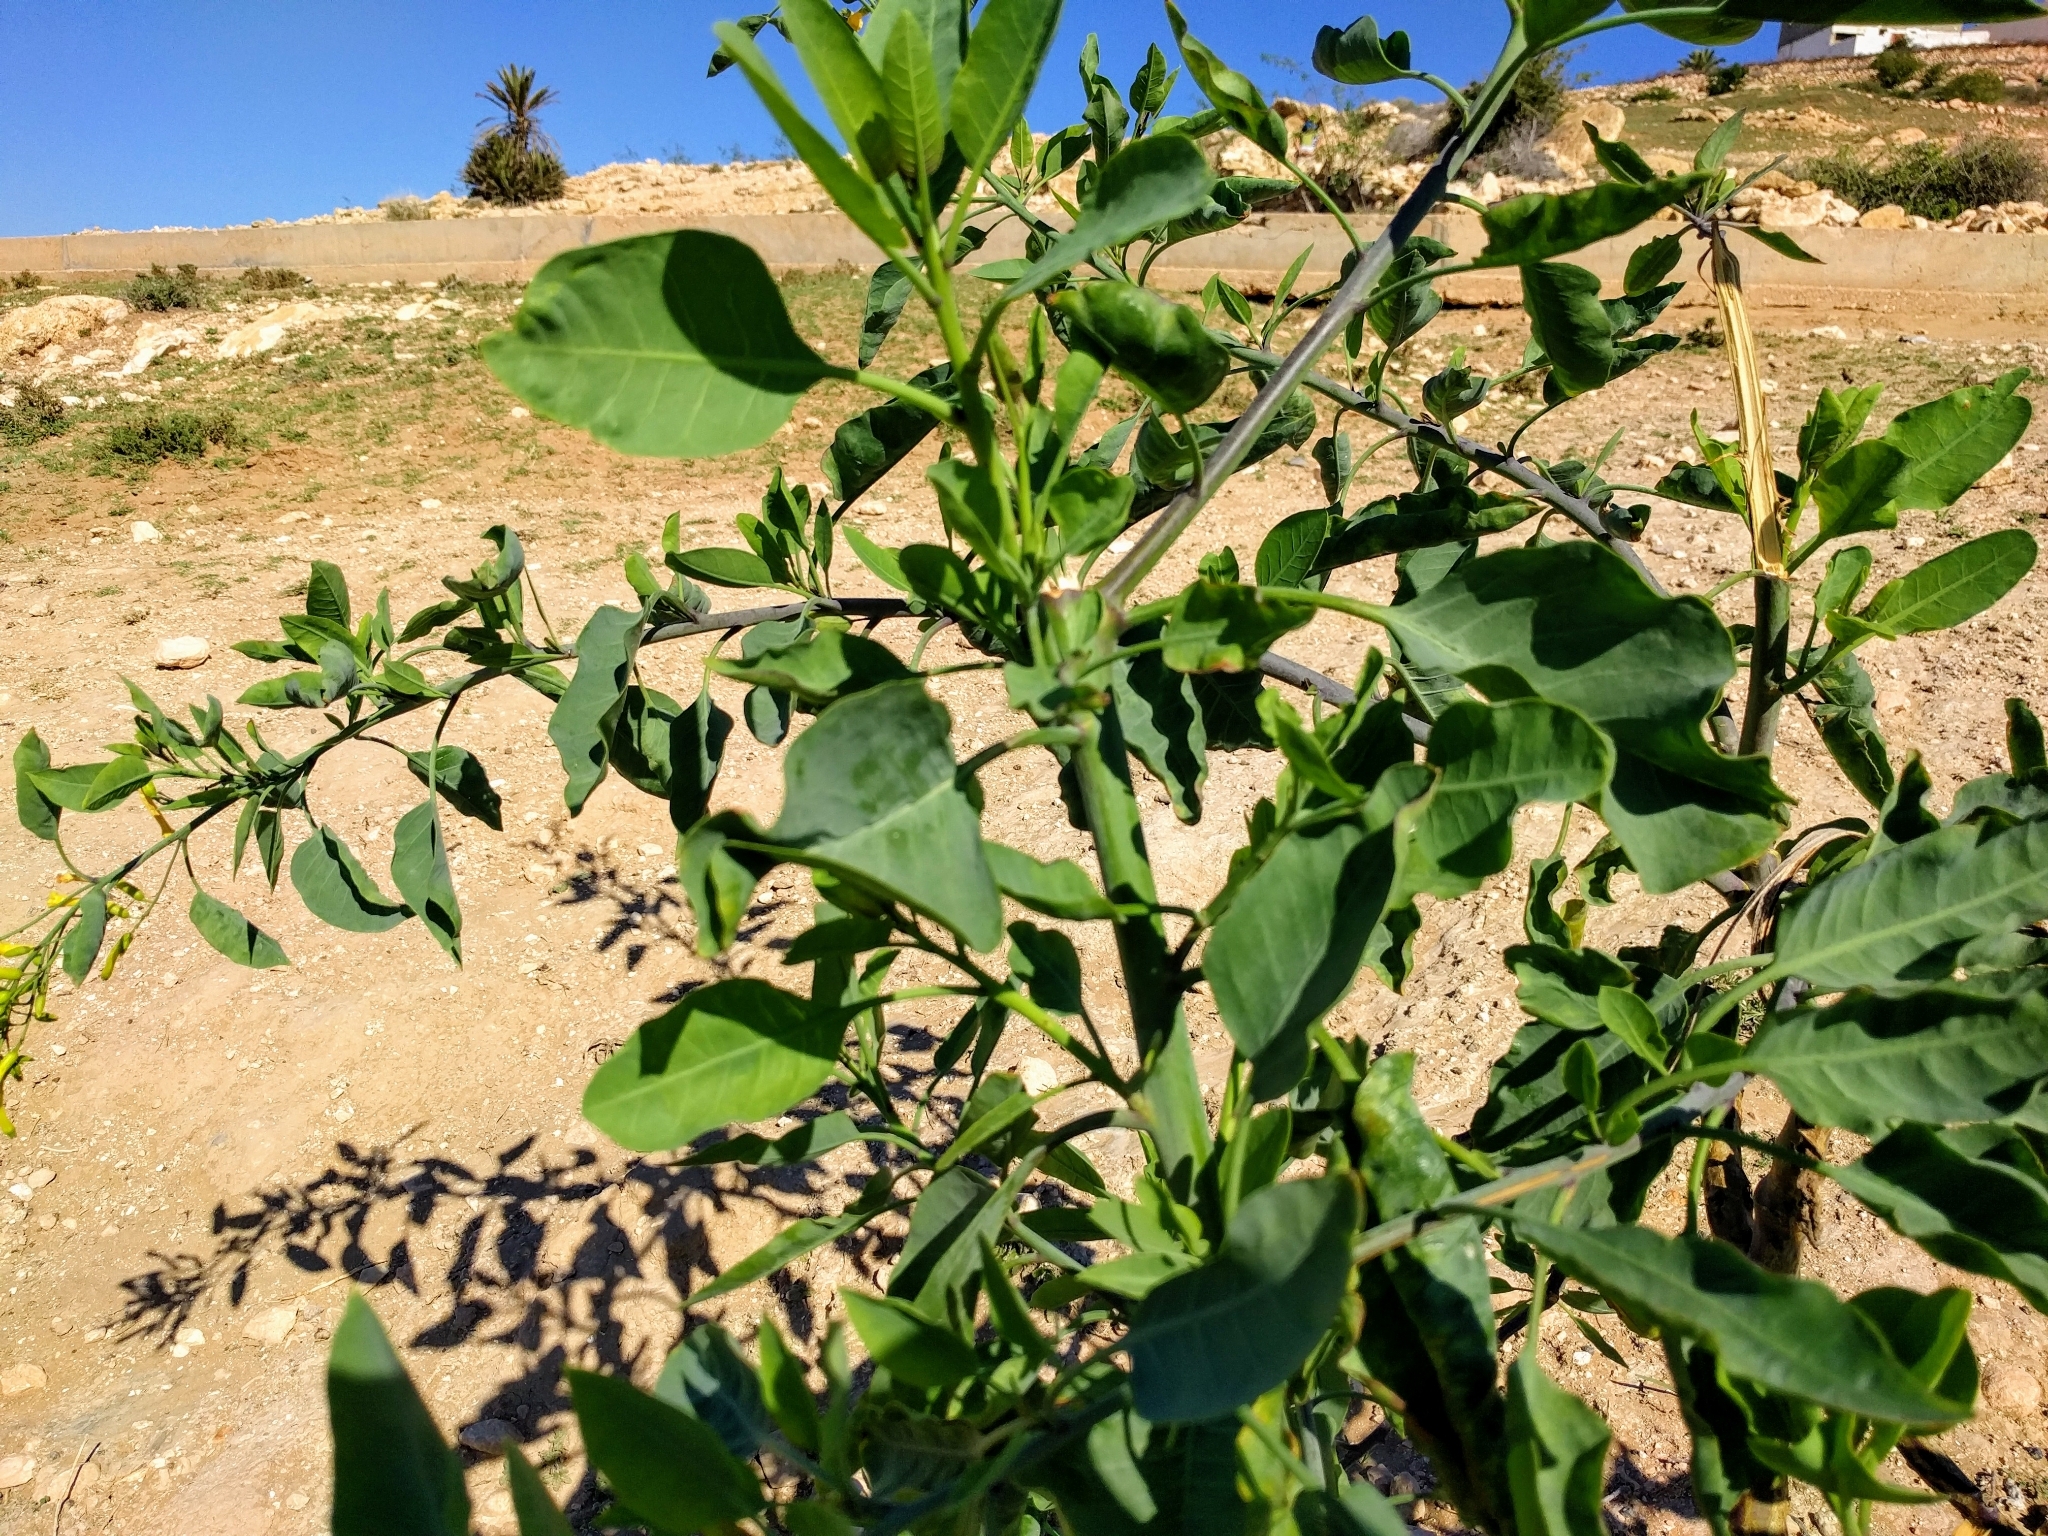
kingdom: Plantae
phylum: Tracheophyta
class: Magnoliopsida
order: Solanales
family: Solanaceae
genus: Nicotiana
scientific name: Nicotiana glauca
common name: Tree tobacco
